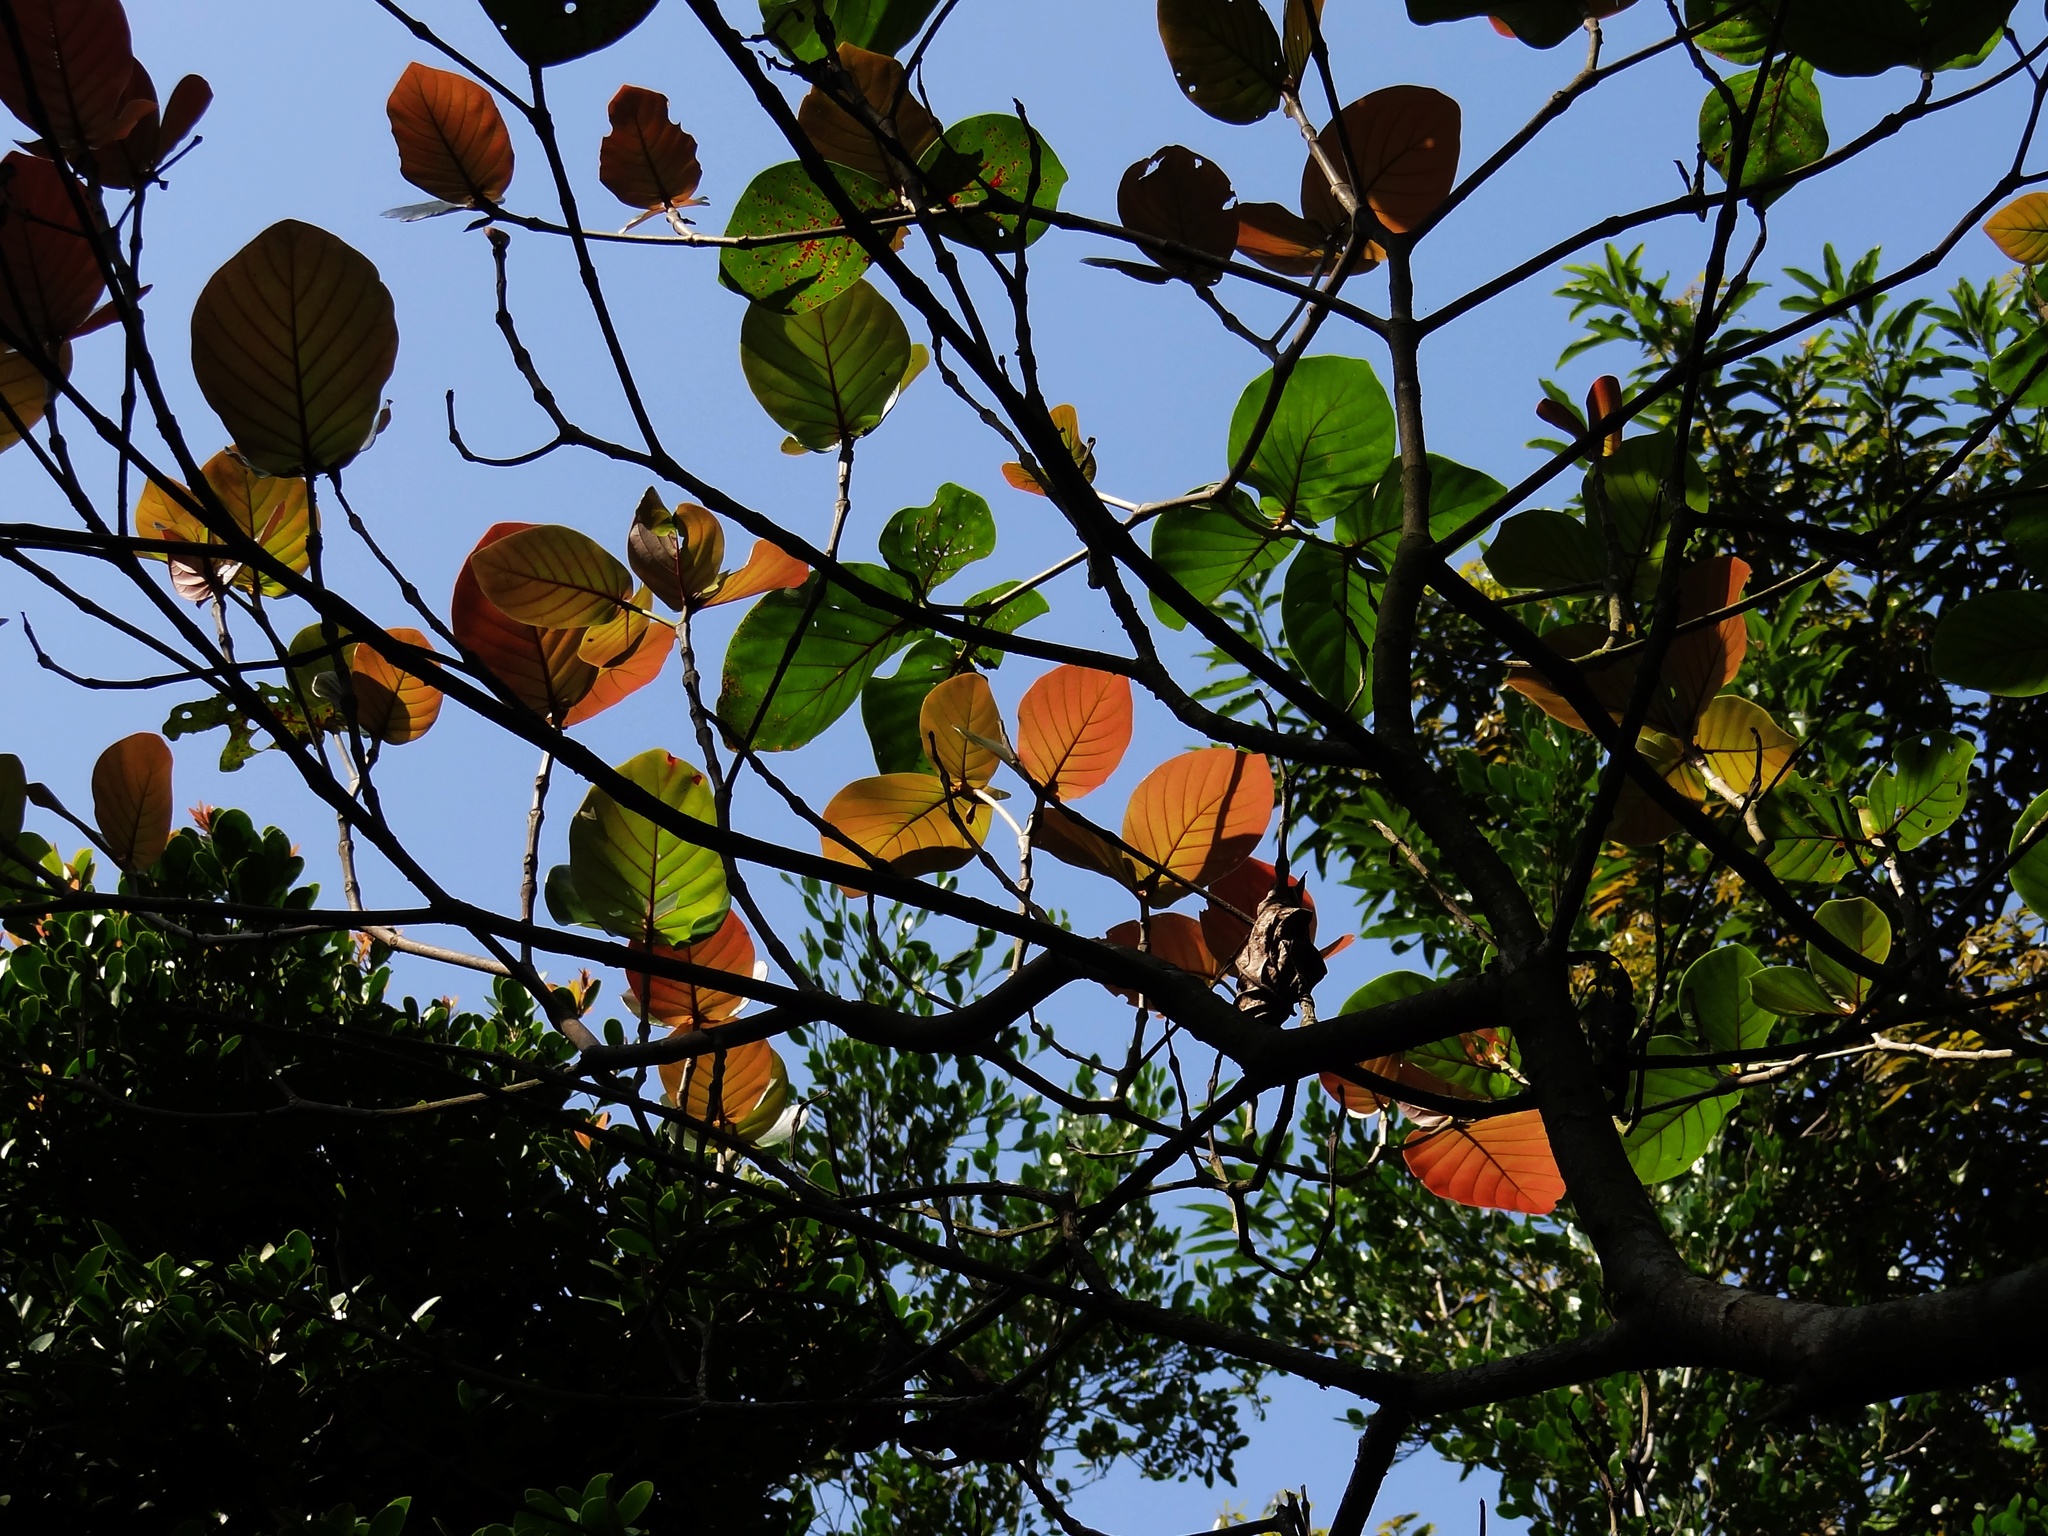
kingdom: Plantae
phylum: Tracheophyta
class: Magnoliopsida
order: Gentianales
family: Rubiaceae
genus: Neonauclea
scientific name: Neonauclea reticulata
